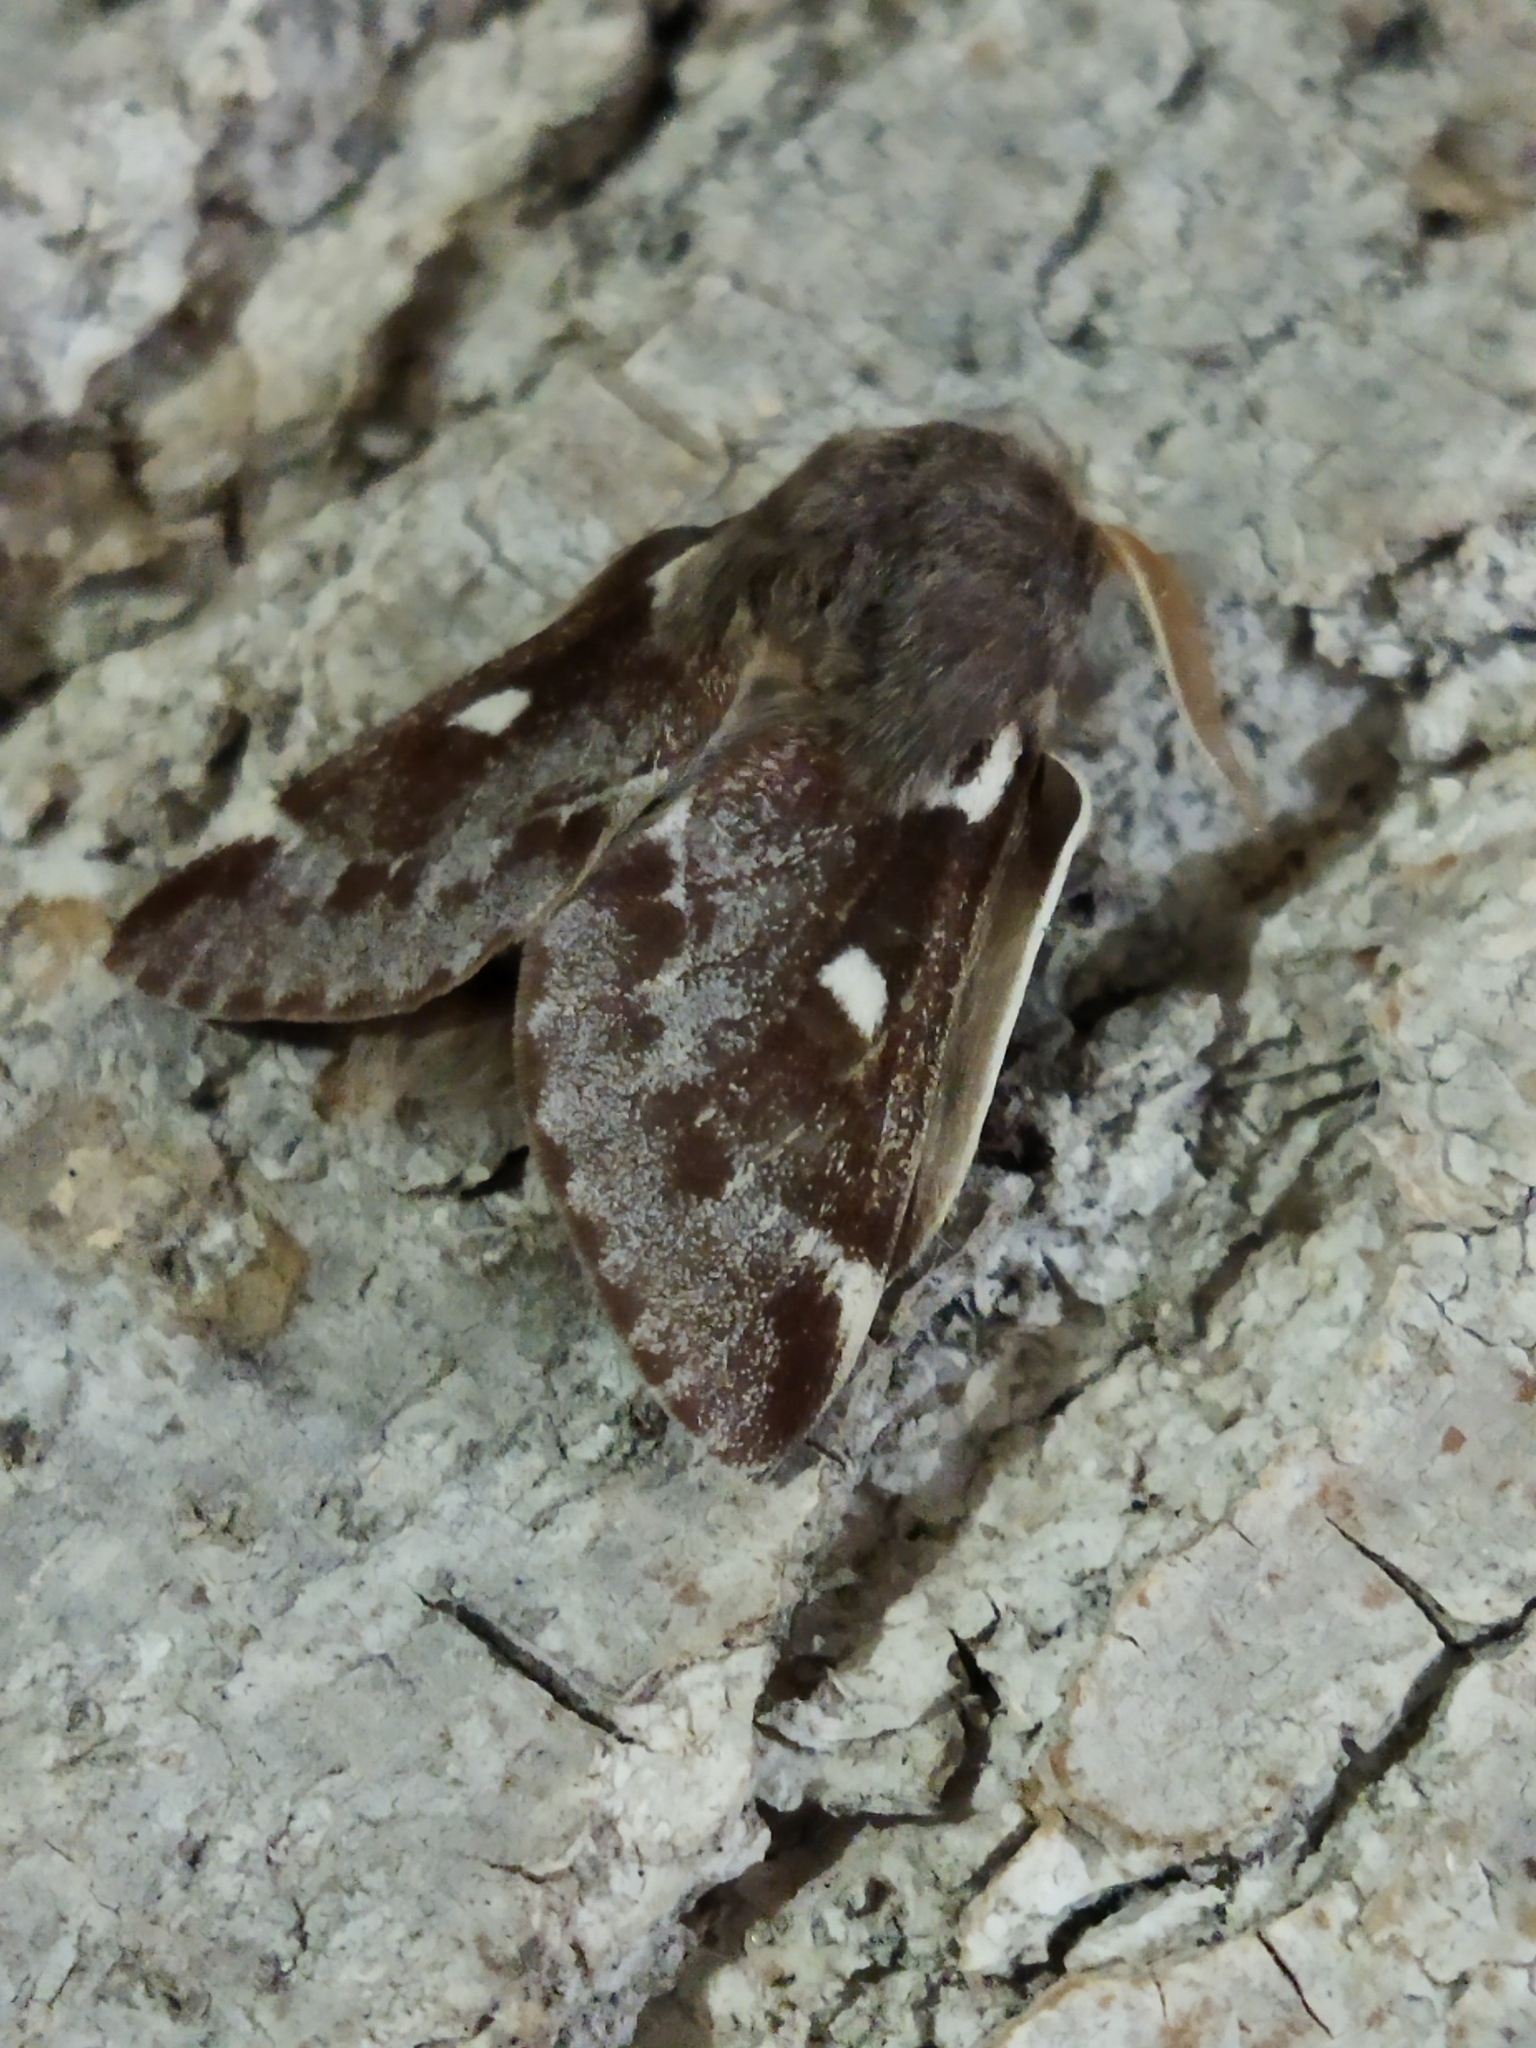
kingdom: Animalia
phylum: Arthropoda
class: Insecta
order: Lepidoptera
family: Lasiocampidae
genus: Eriogaster
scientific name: Eriogaster lanestris
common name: Small eggar
